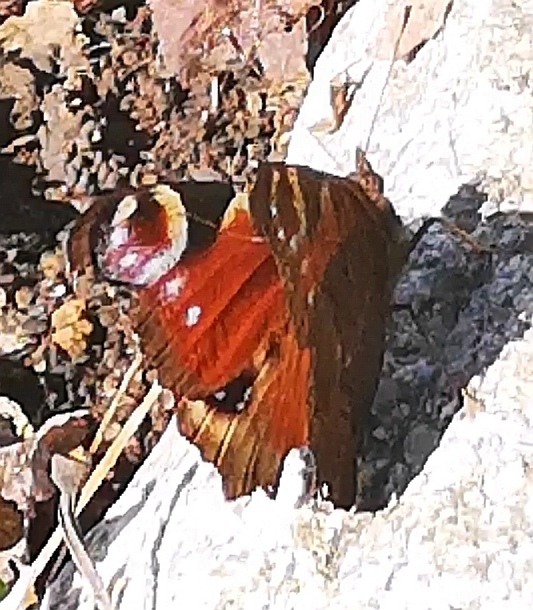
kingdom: Animalia
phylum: Arthropoda
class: Insecta
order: Lepidoptera
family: Nymphalidae
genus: Aglais
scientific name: Aglais io
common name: Peacock
